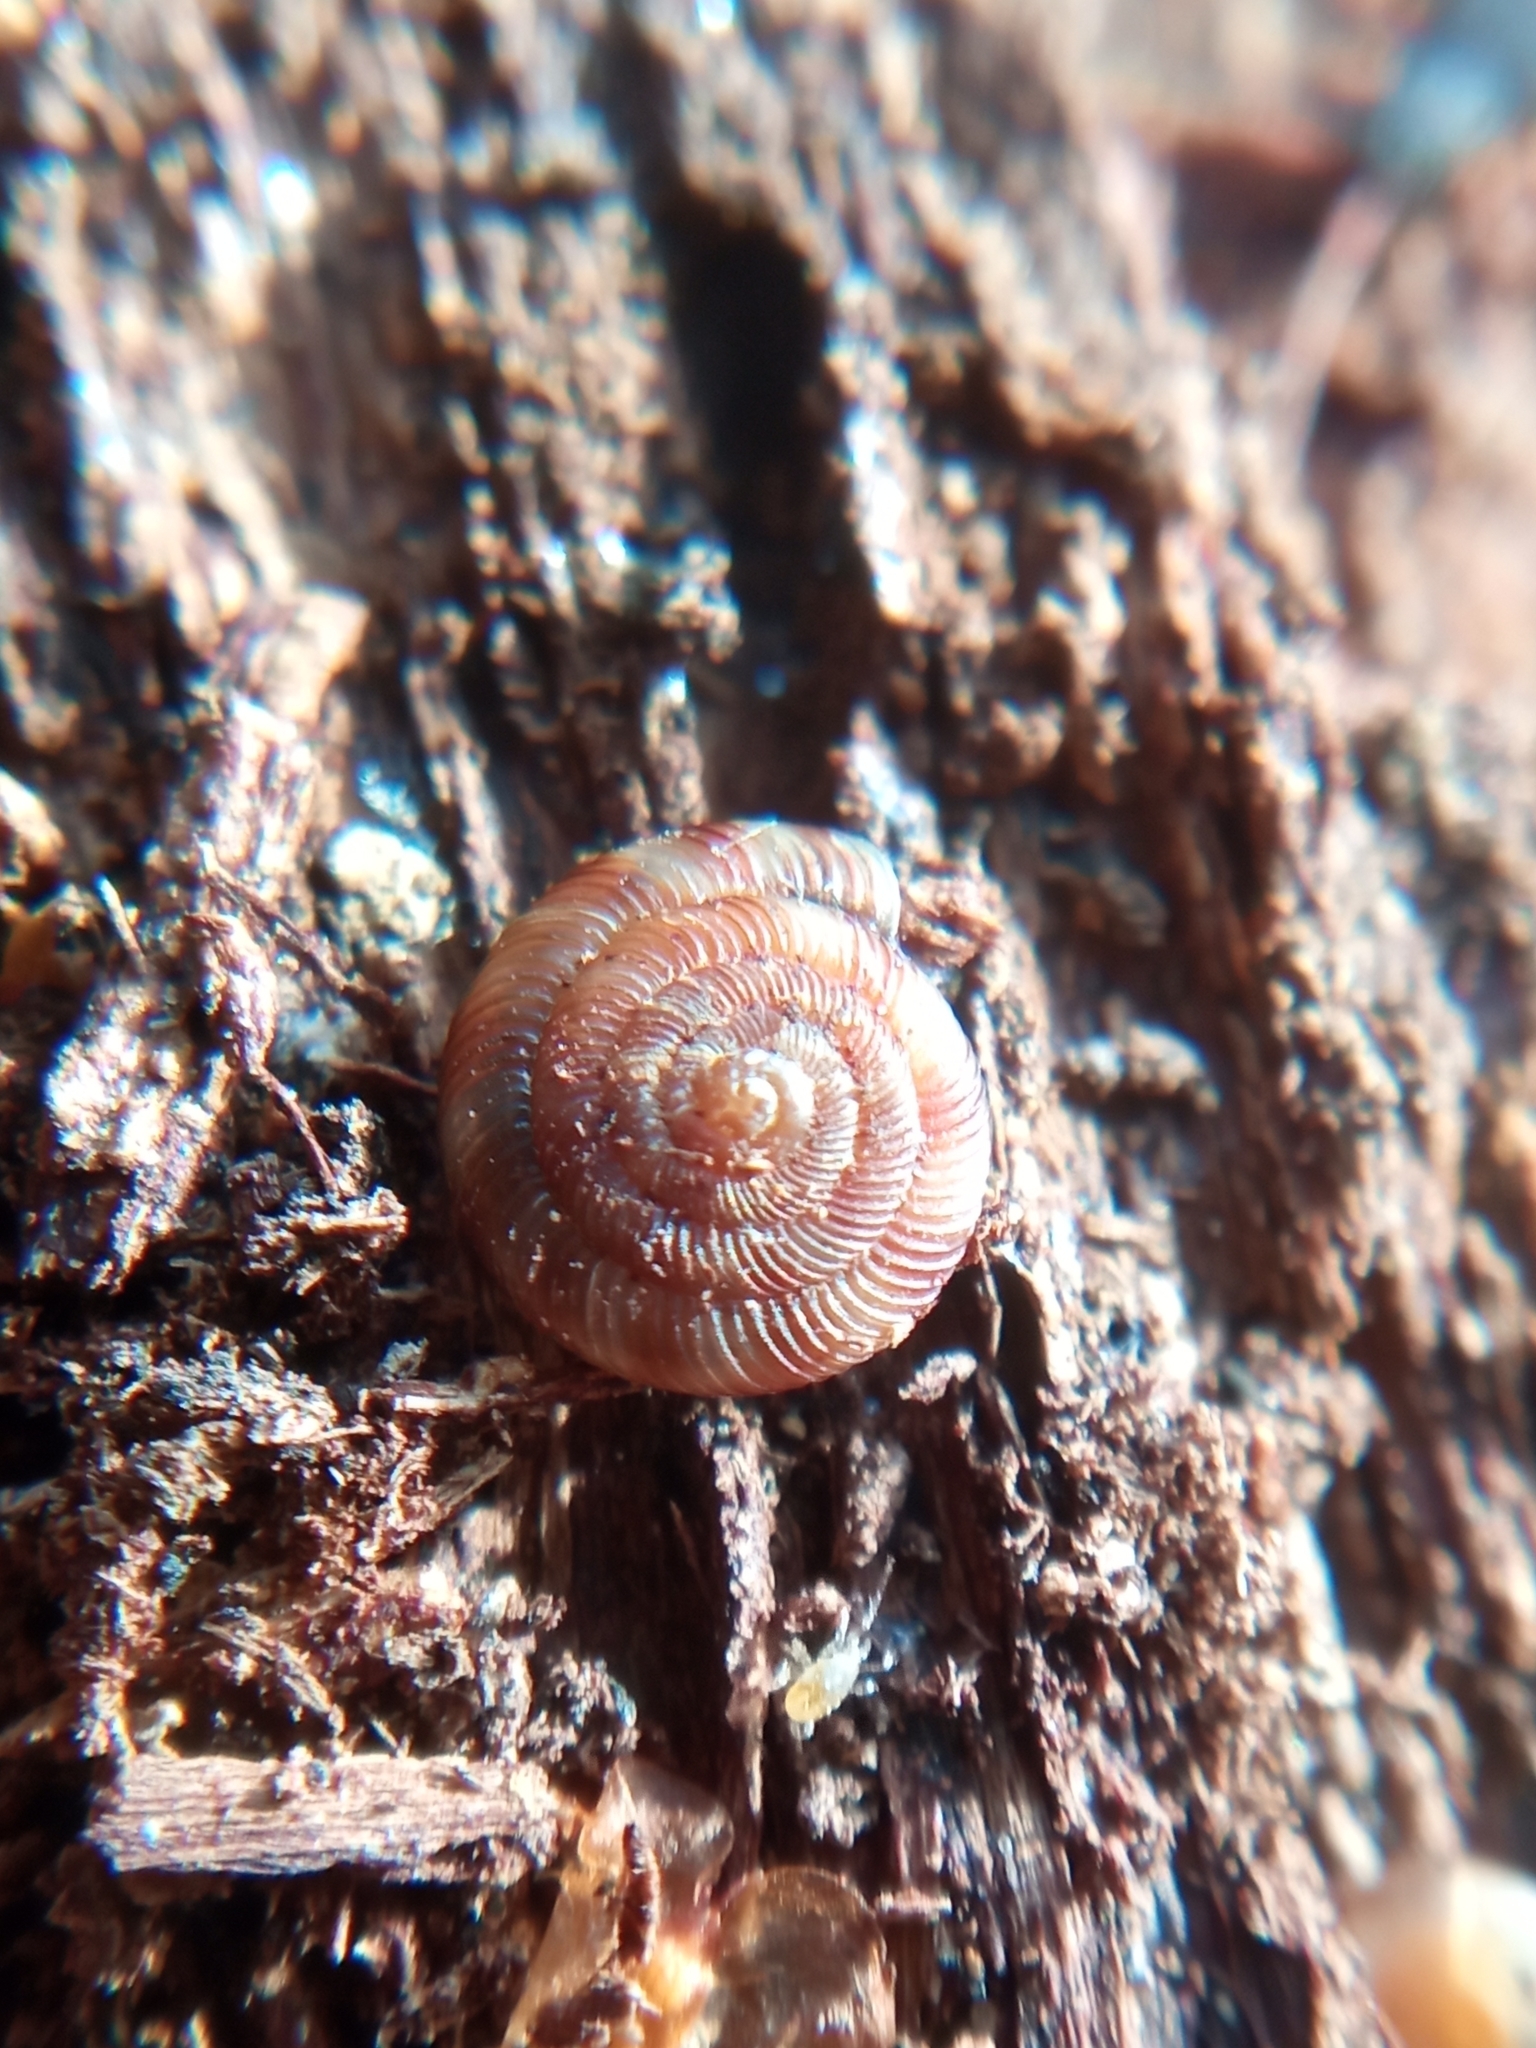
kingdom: Animalia
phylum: Mollusca
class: Gastropoda
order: Stylommatophora
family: Discidae
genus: Discus
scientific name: Discus rotundatus
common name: Rounded snail
